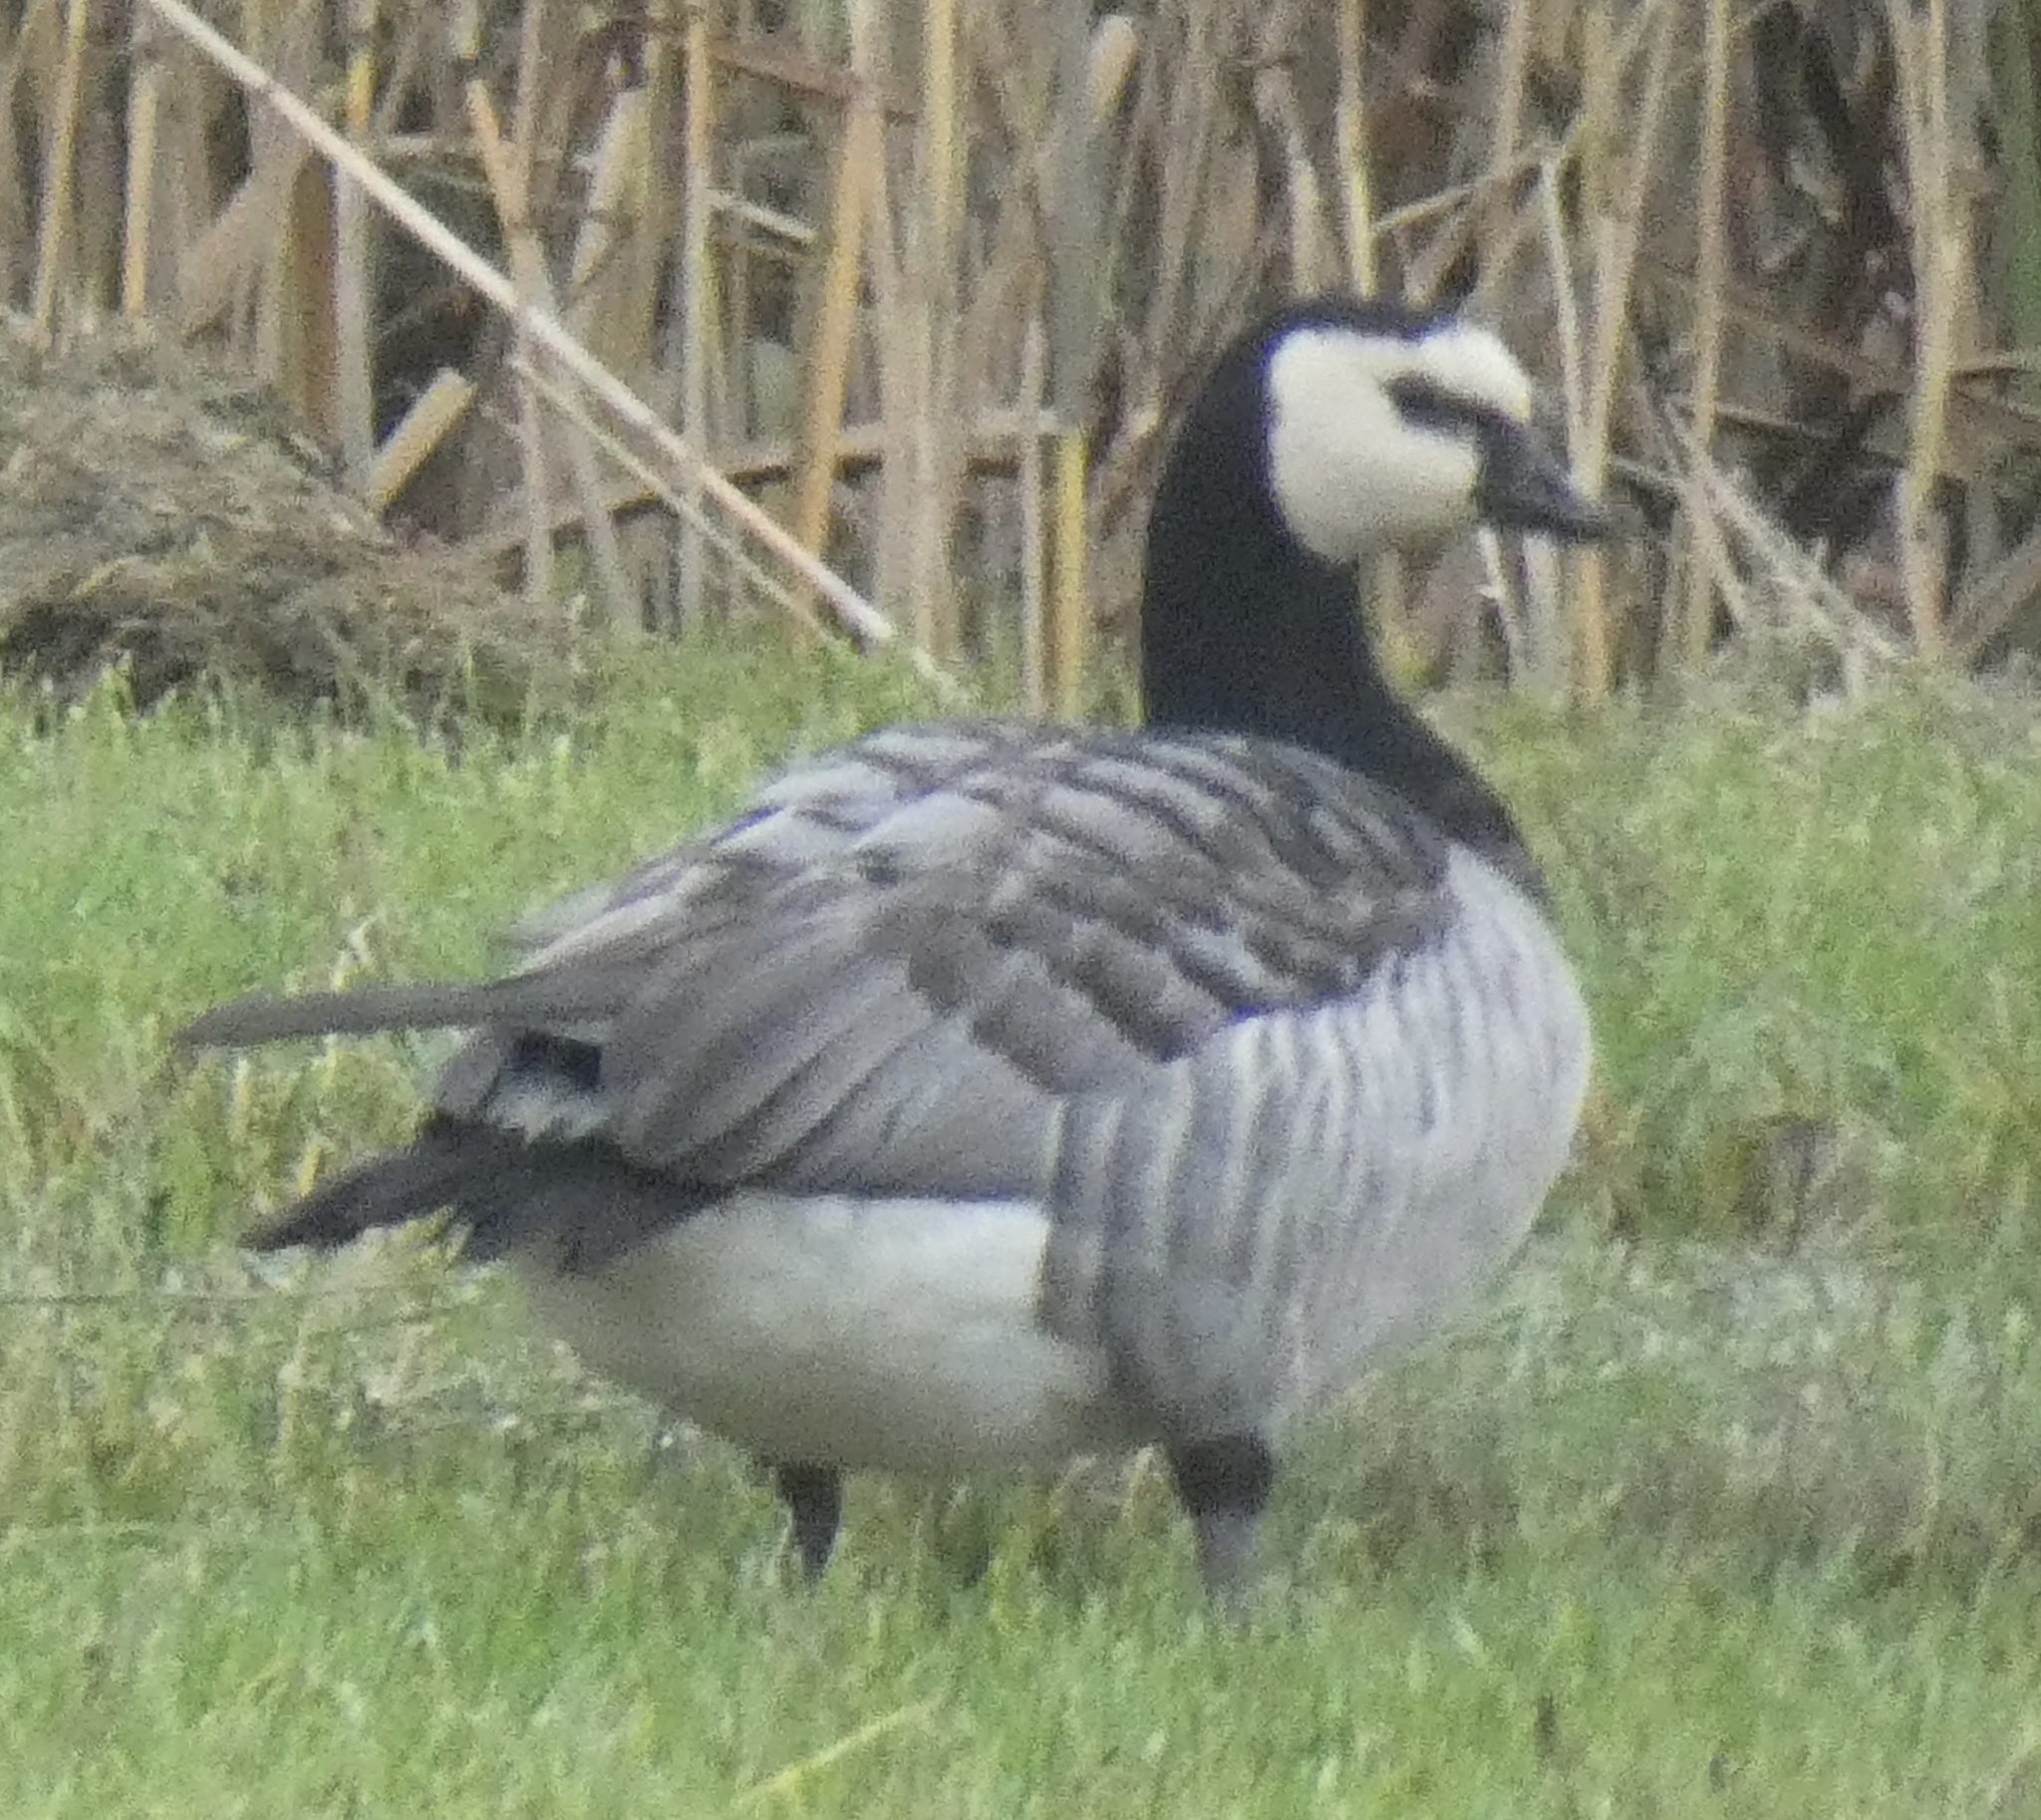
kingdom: Animalia
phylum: Chordata
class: Aves
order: Anseriformes
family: Anatidae
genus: Branta
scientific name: Branta leucopsis
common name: Barnacle goose
